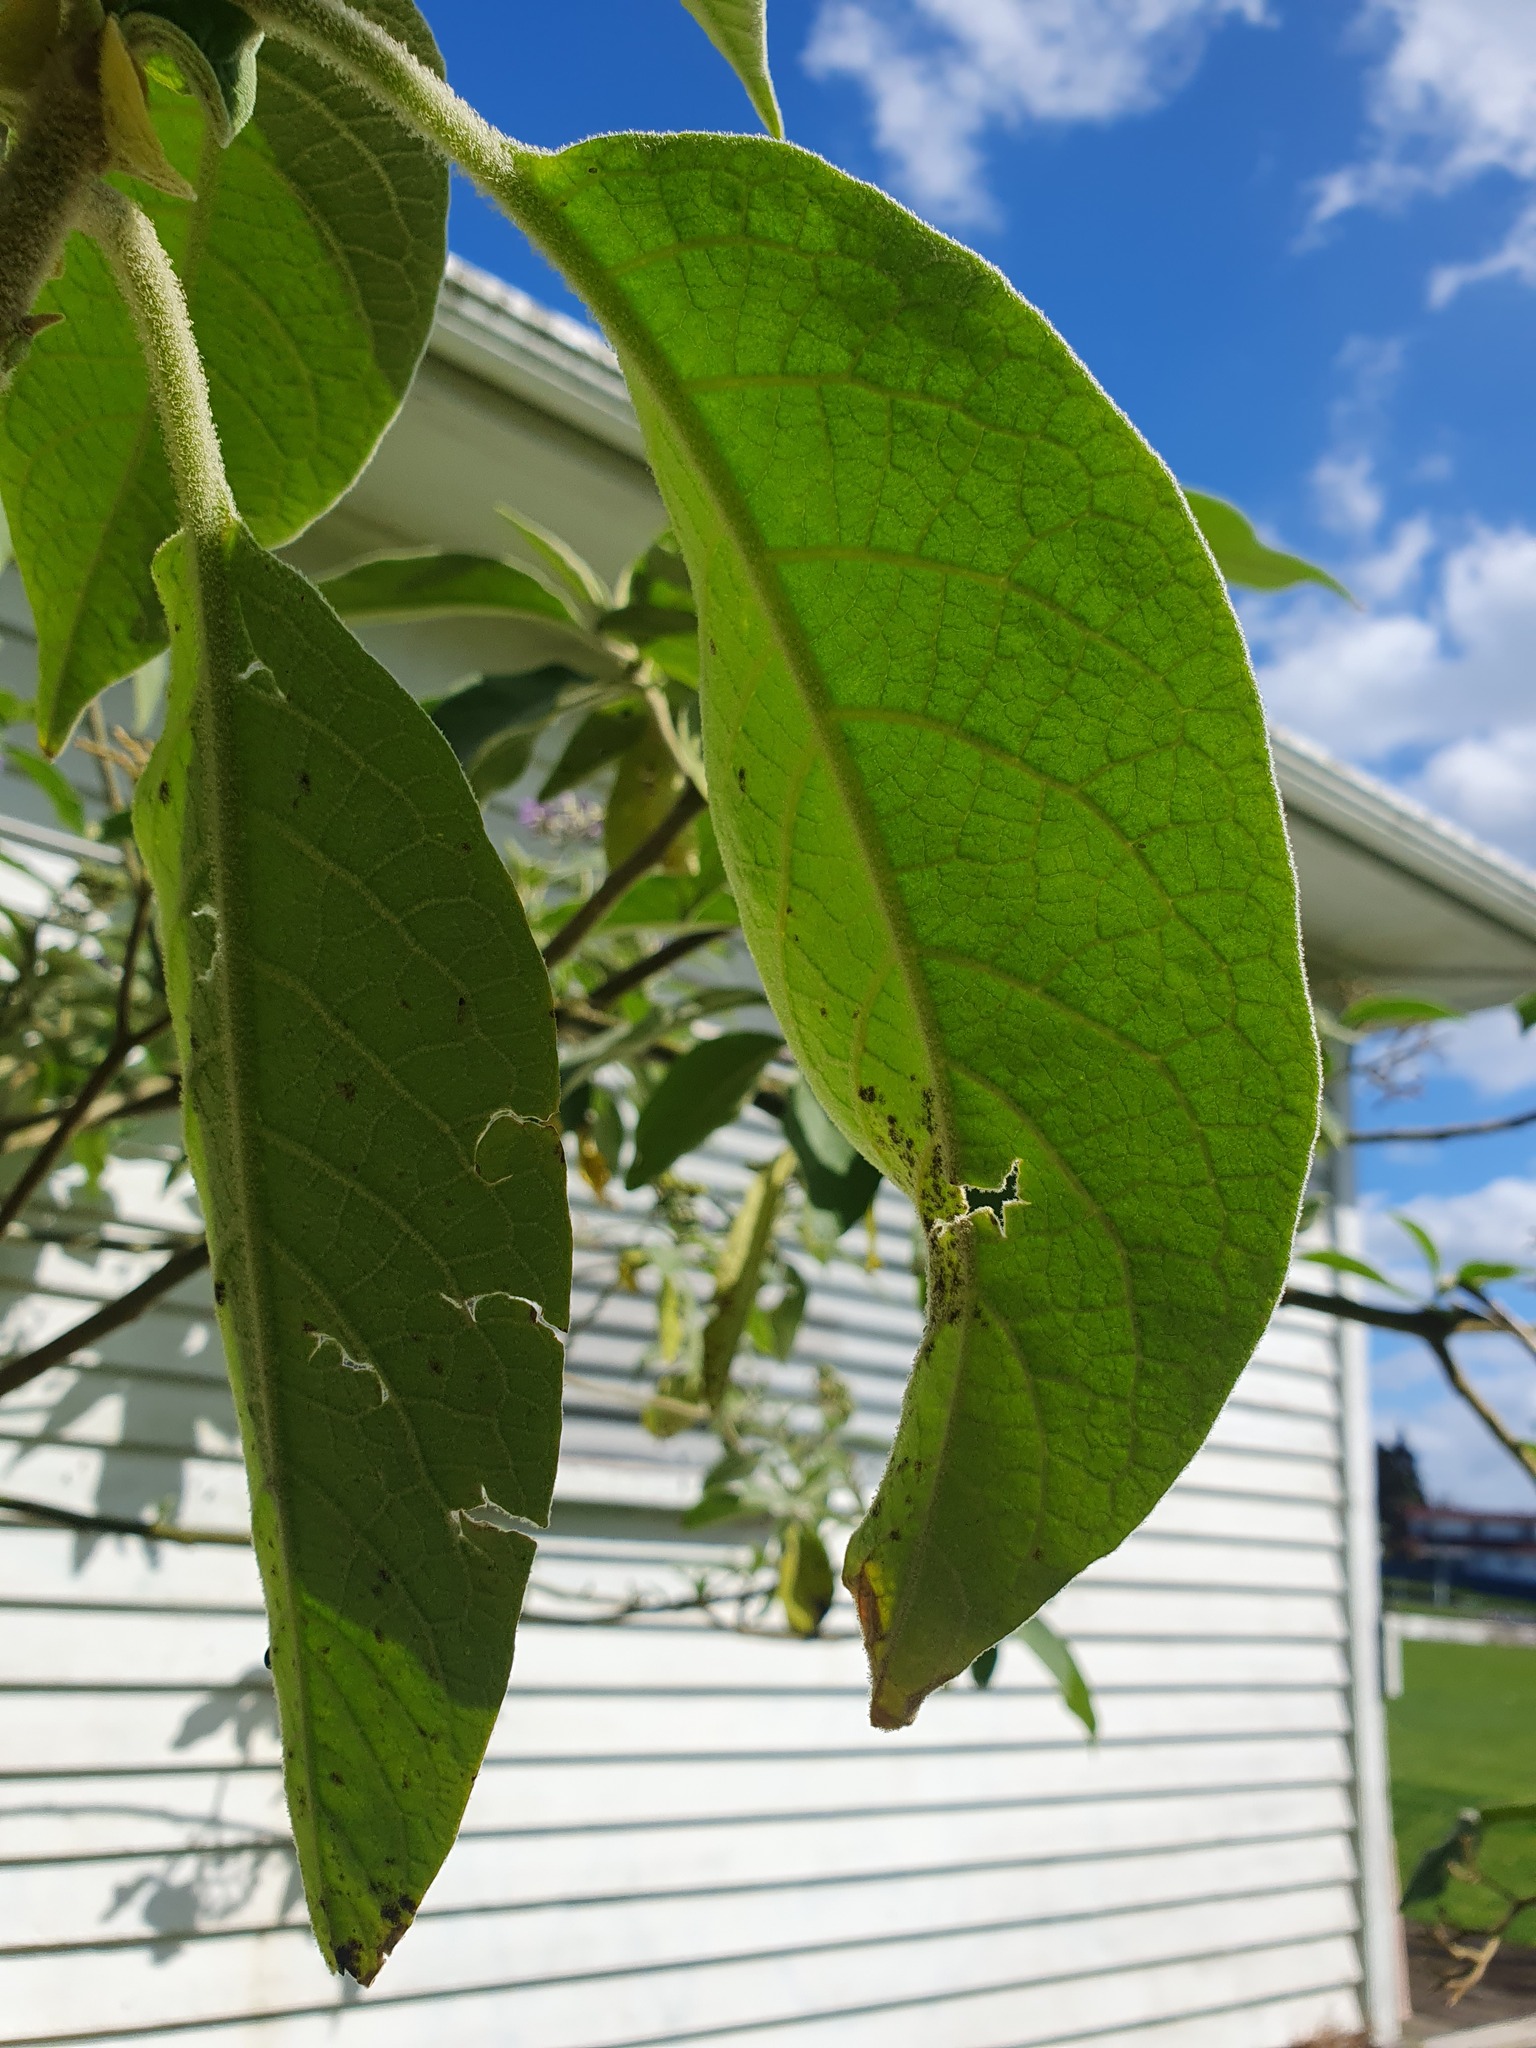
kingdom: Plantae
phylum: Tracheophyta
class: Magnoliopsida
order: Solanales
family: Solanaceae
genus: Solanum
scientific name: Solanum mauritianum
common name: Earleaf nightshade
